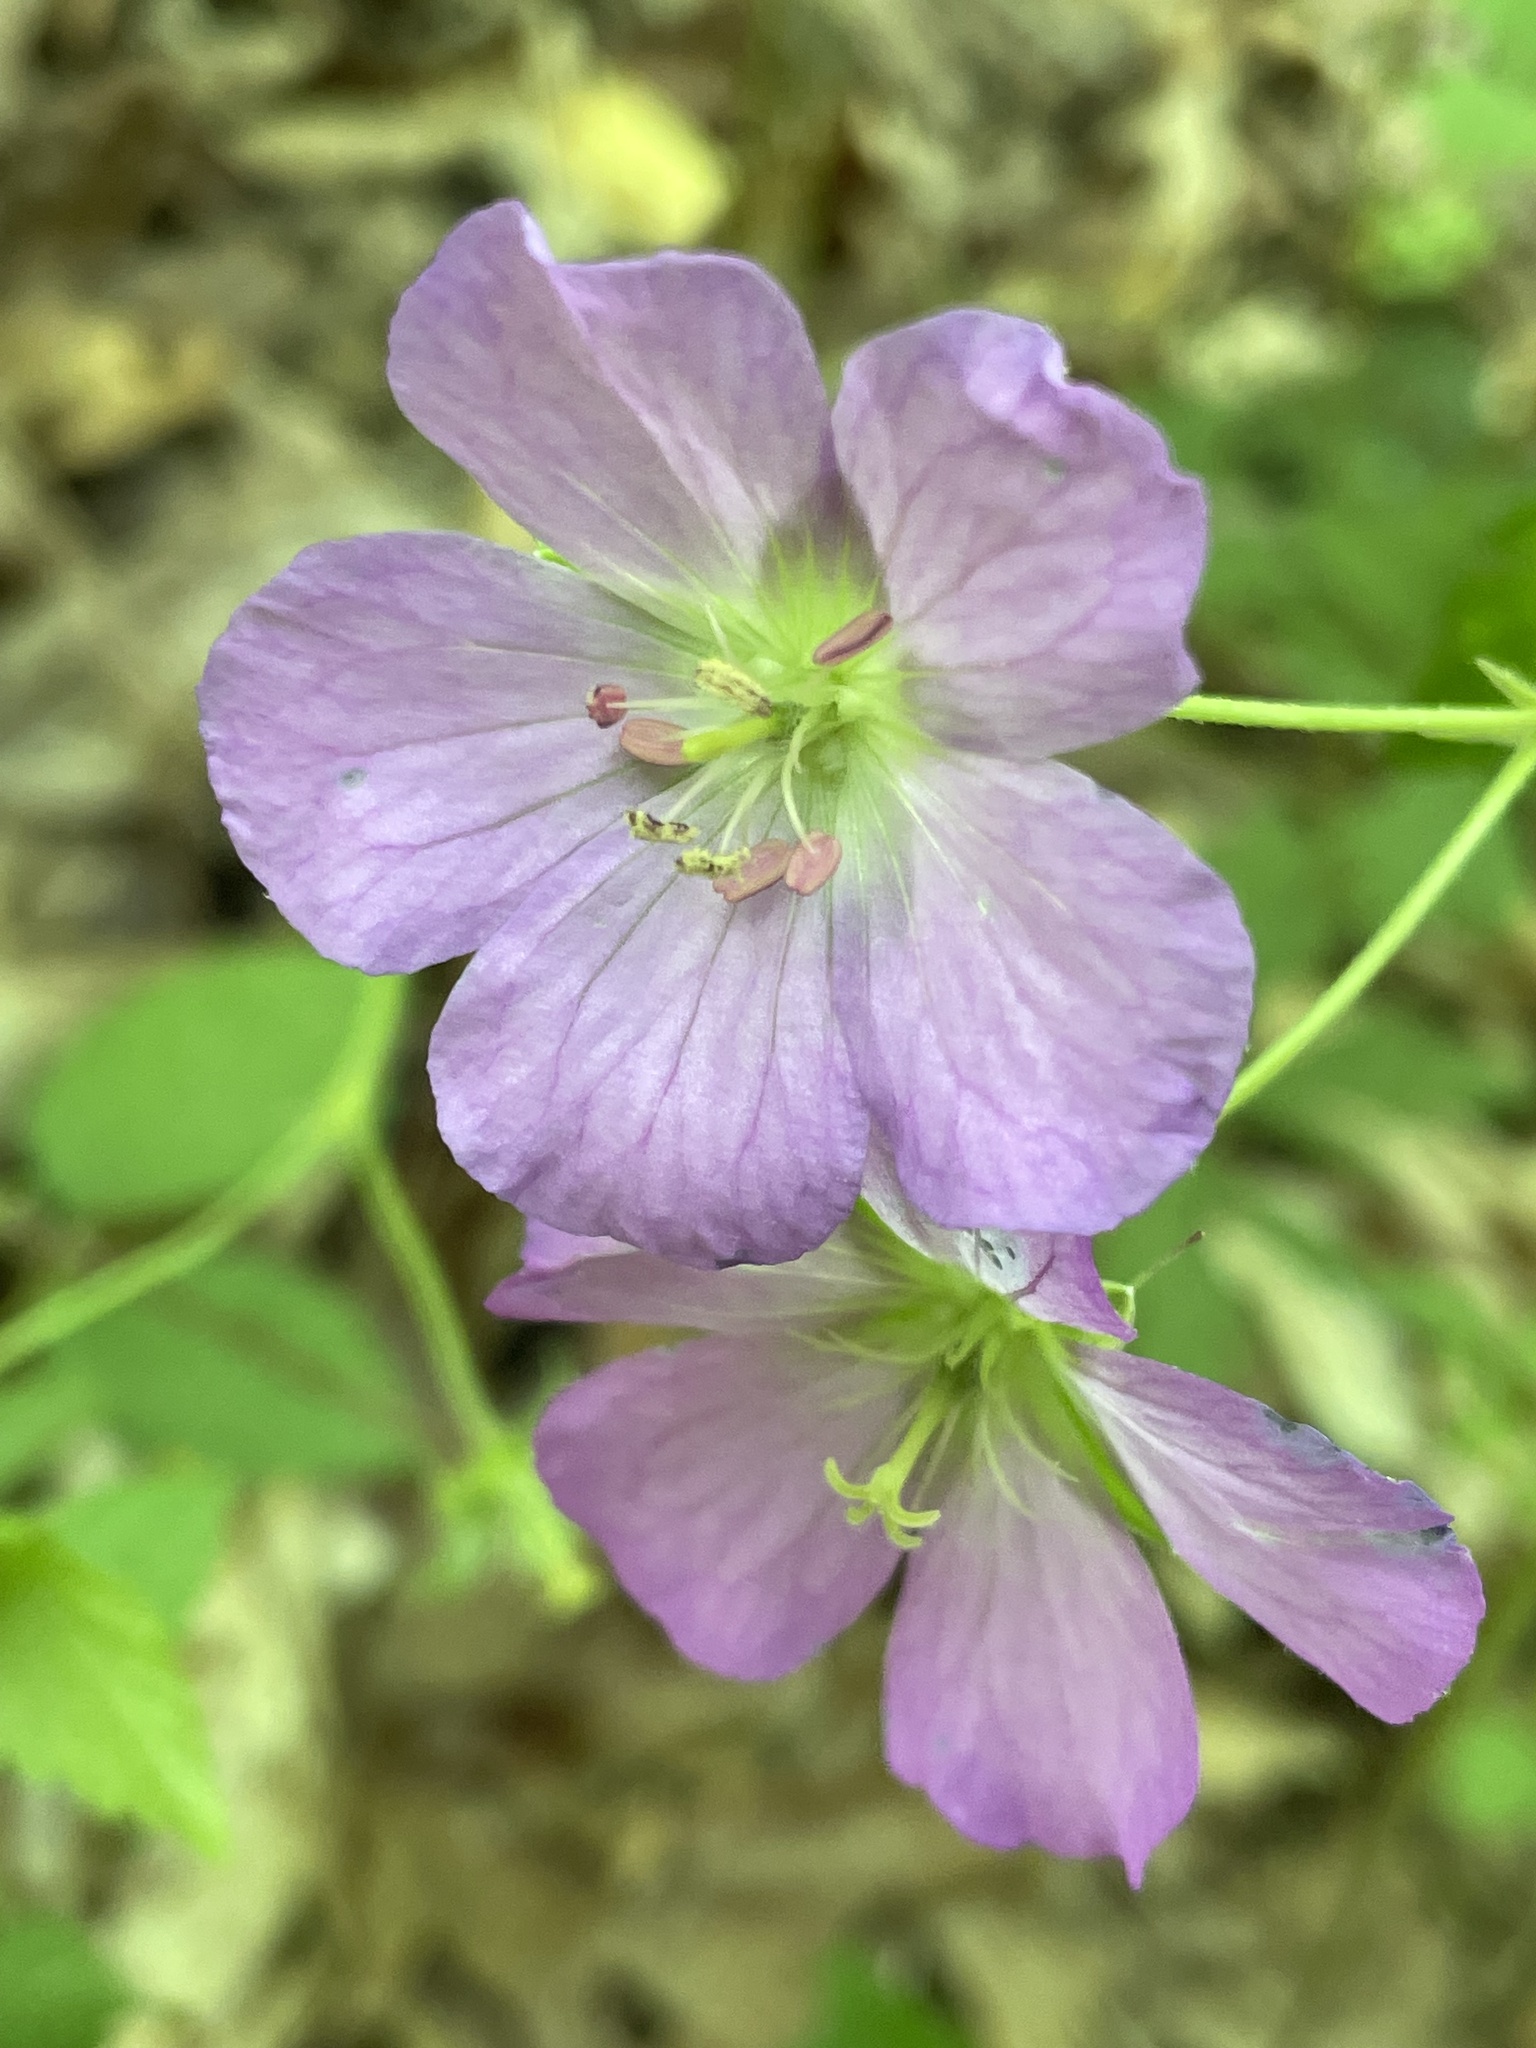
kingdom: Plantae
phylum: Tracheophyta
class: Magnoliopsida
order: Geraniales
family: Geraniaceae
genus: Geranium
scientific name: Geranium maculatum
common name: Spotted geranium
